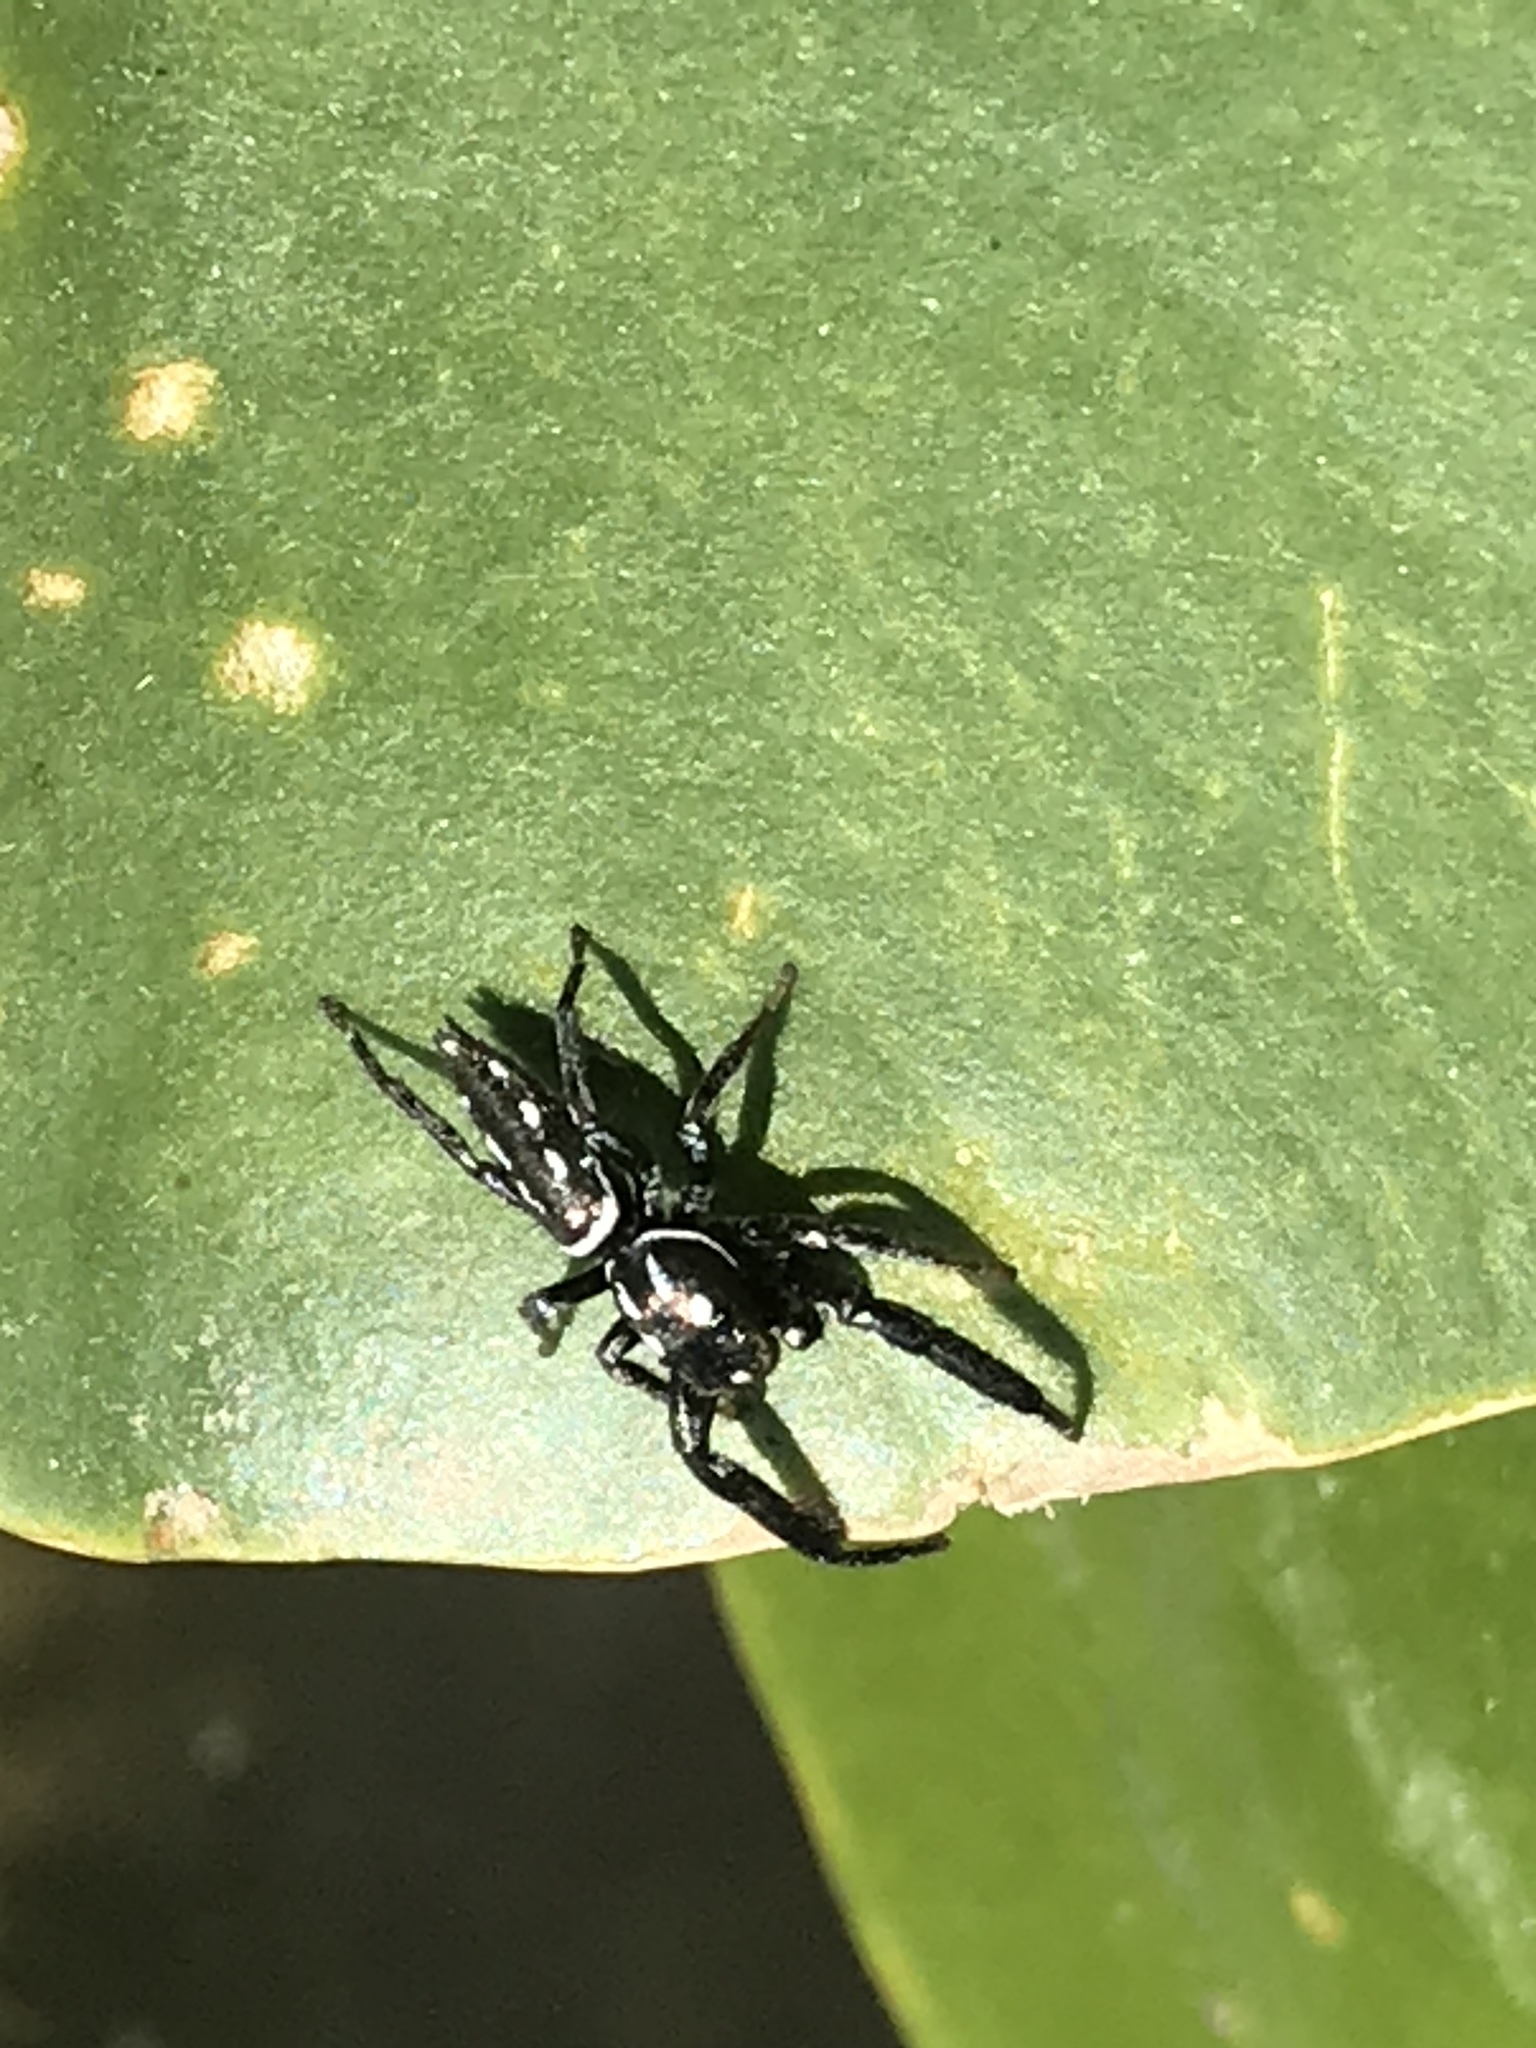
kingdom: Animalia
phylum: Arthropoda
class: Arachnida
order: Araneae
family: Salticidae
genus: Marpissa
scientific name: Marpissa formosa
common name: Short-bellied slender jumping spider
